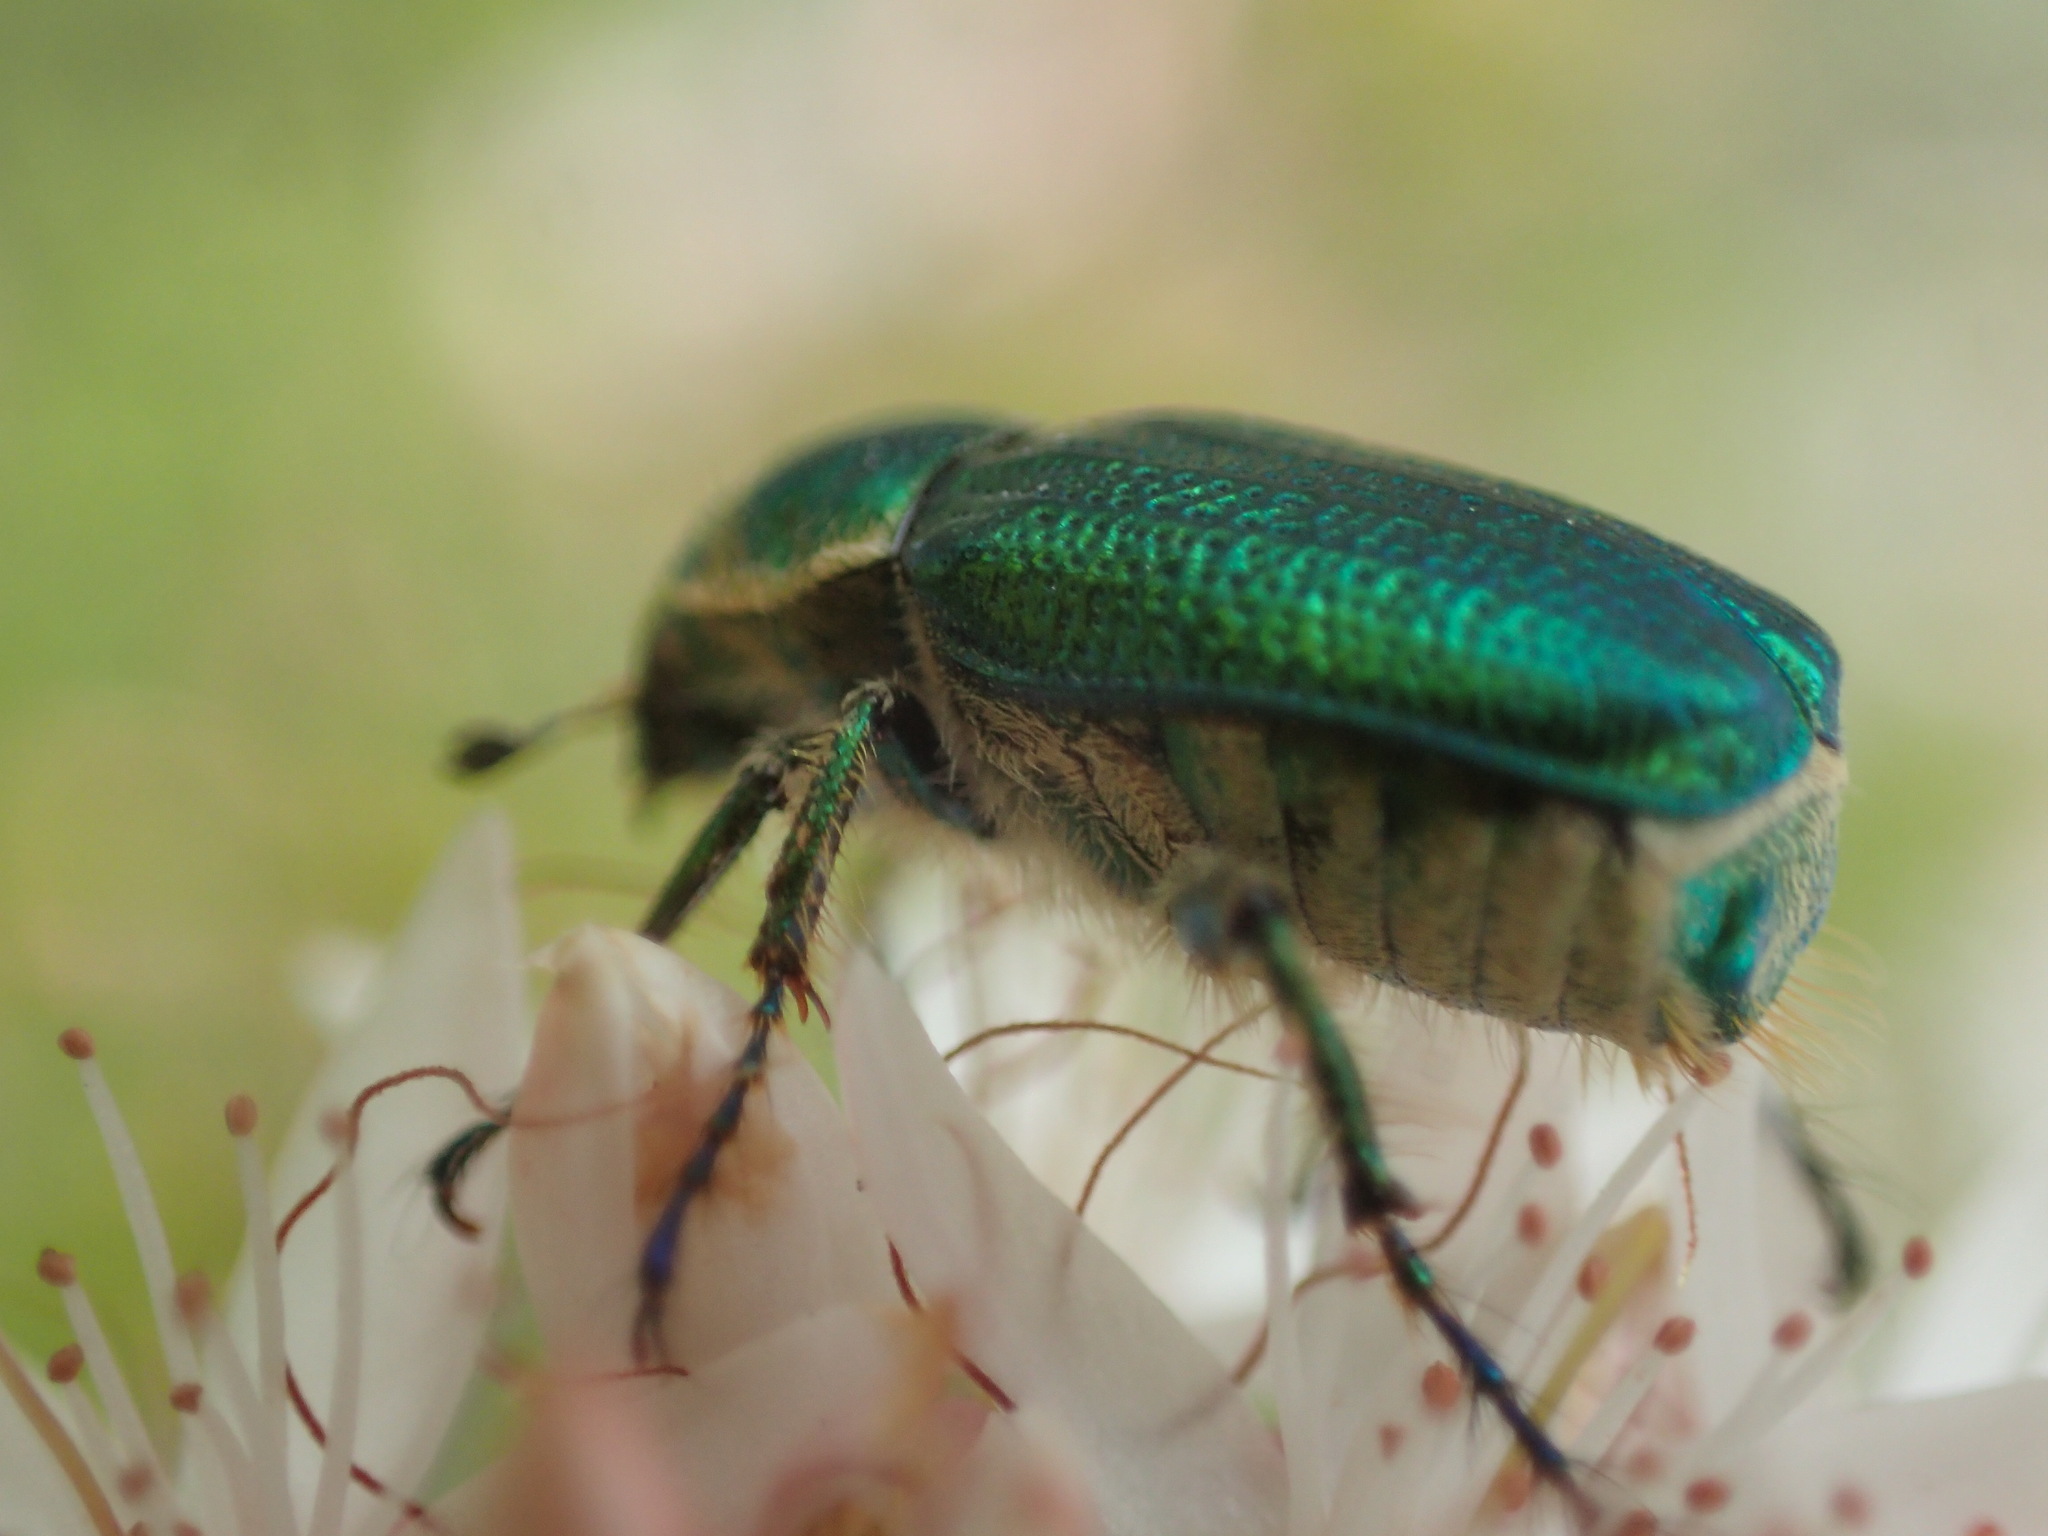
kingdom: Animalia
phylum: Arthropoda
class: Insecta
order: Coleoptera
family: Scarabaeidae
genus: Diphucephala
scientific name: Diphucephala colaspidoides
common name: Green scarab beetle
